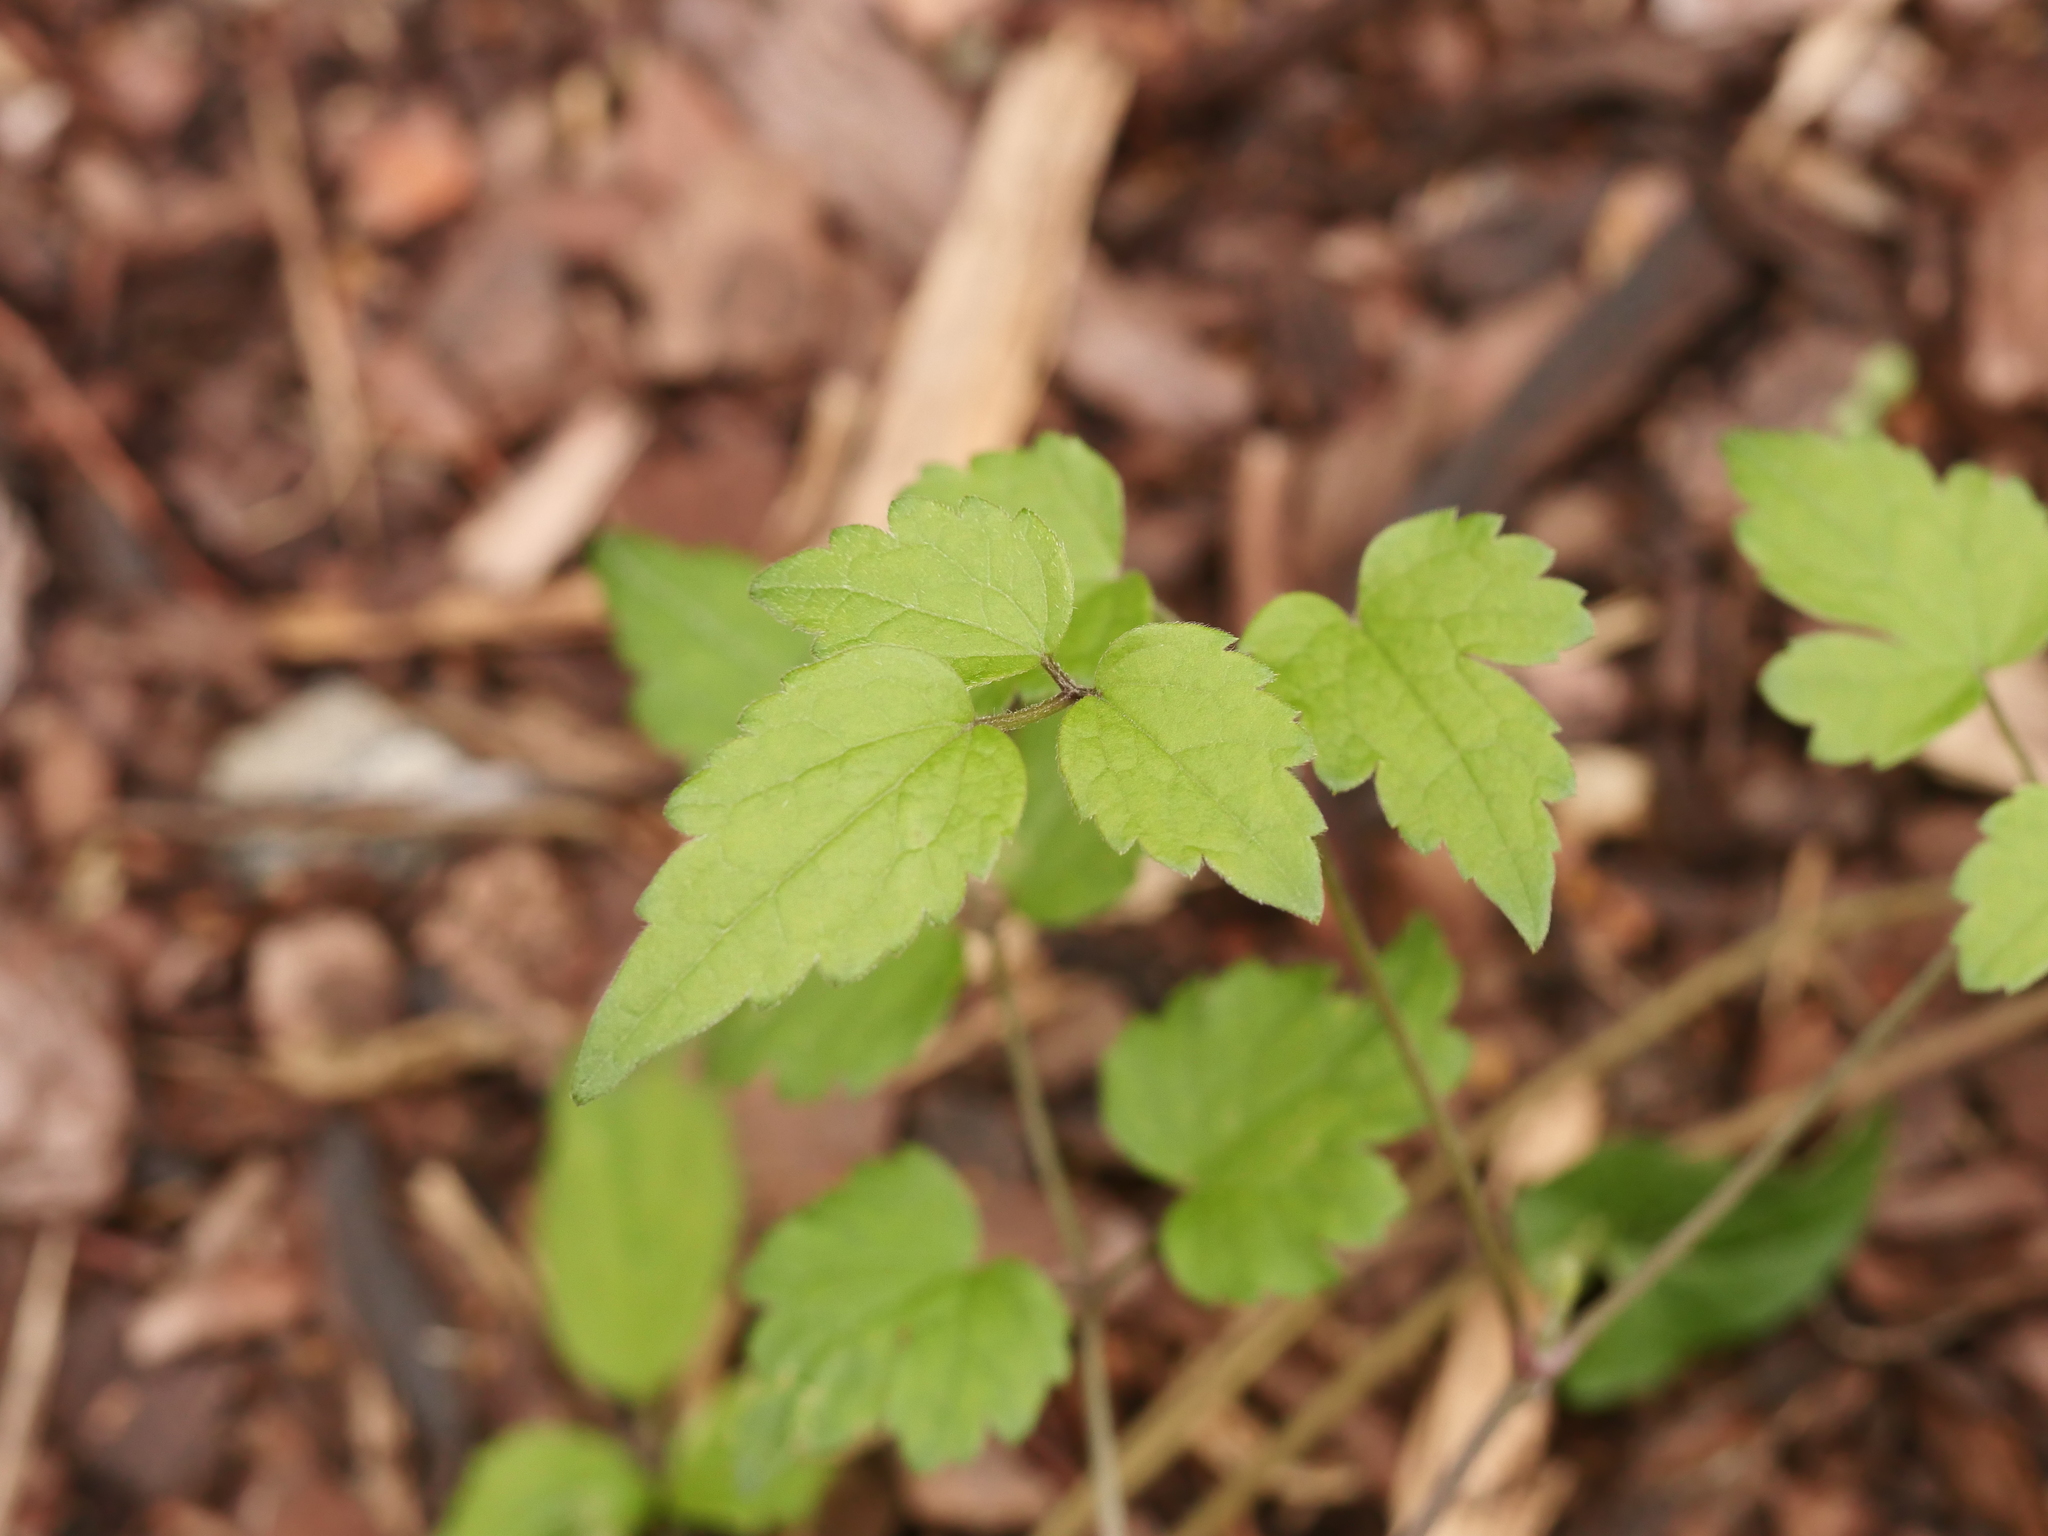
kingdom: Plantae
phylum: Tracheophyta
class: Magnoliopsida
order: Ranunculales
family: Ranunculaceae
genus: Clematis
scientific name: Clematis vitalba
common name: Evergreen clematis
